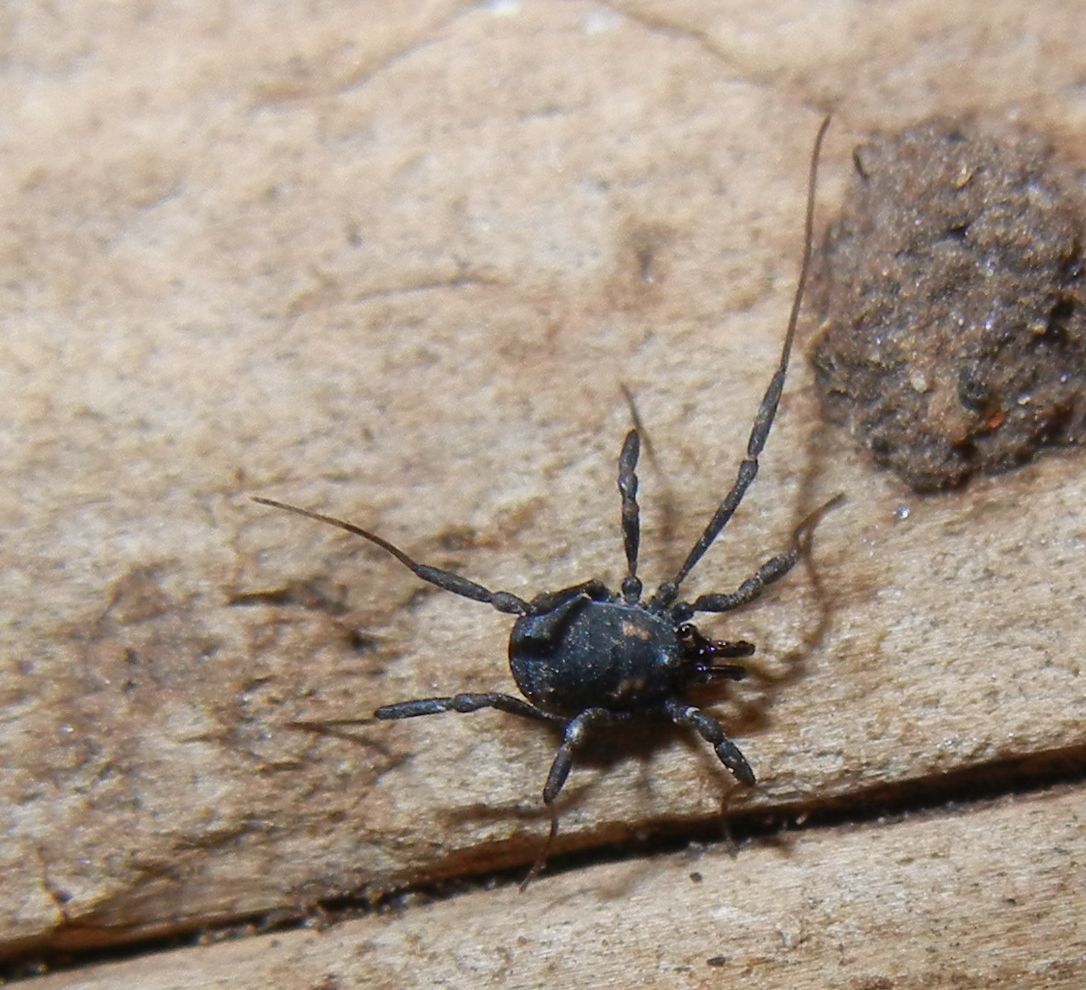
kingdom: Animalia
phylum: Arthropoda
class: Arachnida
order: Opiliones
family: Nemastomatidae
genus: Nemastoma
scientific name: Nemastoma bimaculatum
